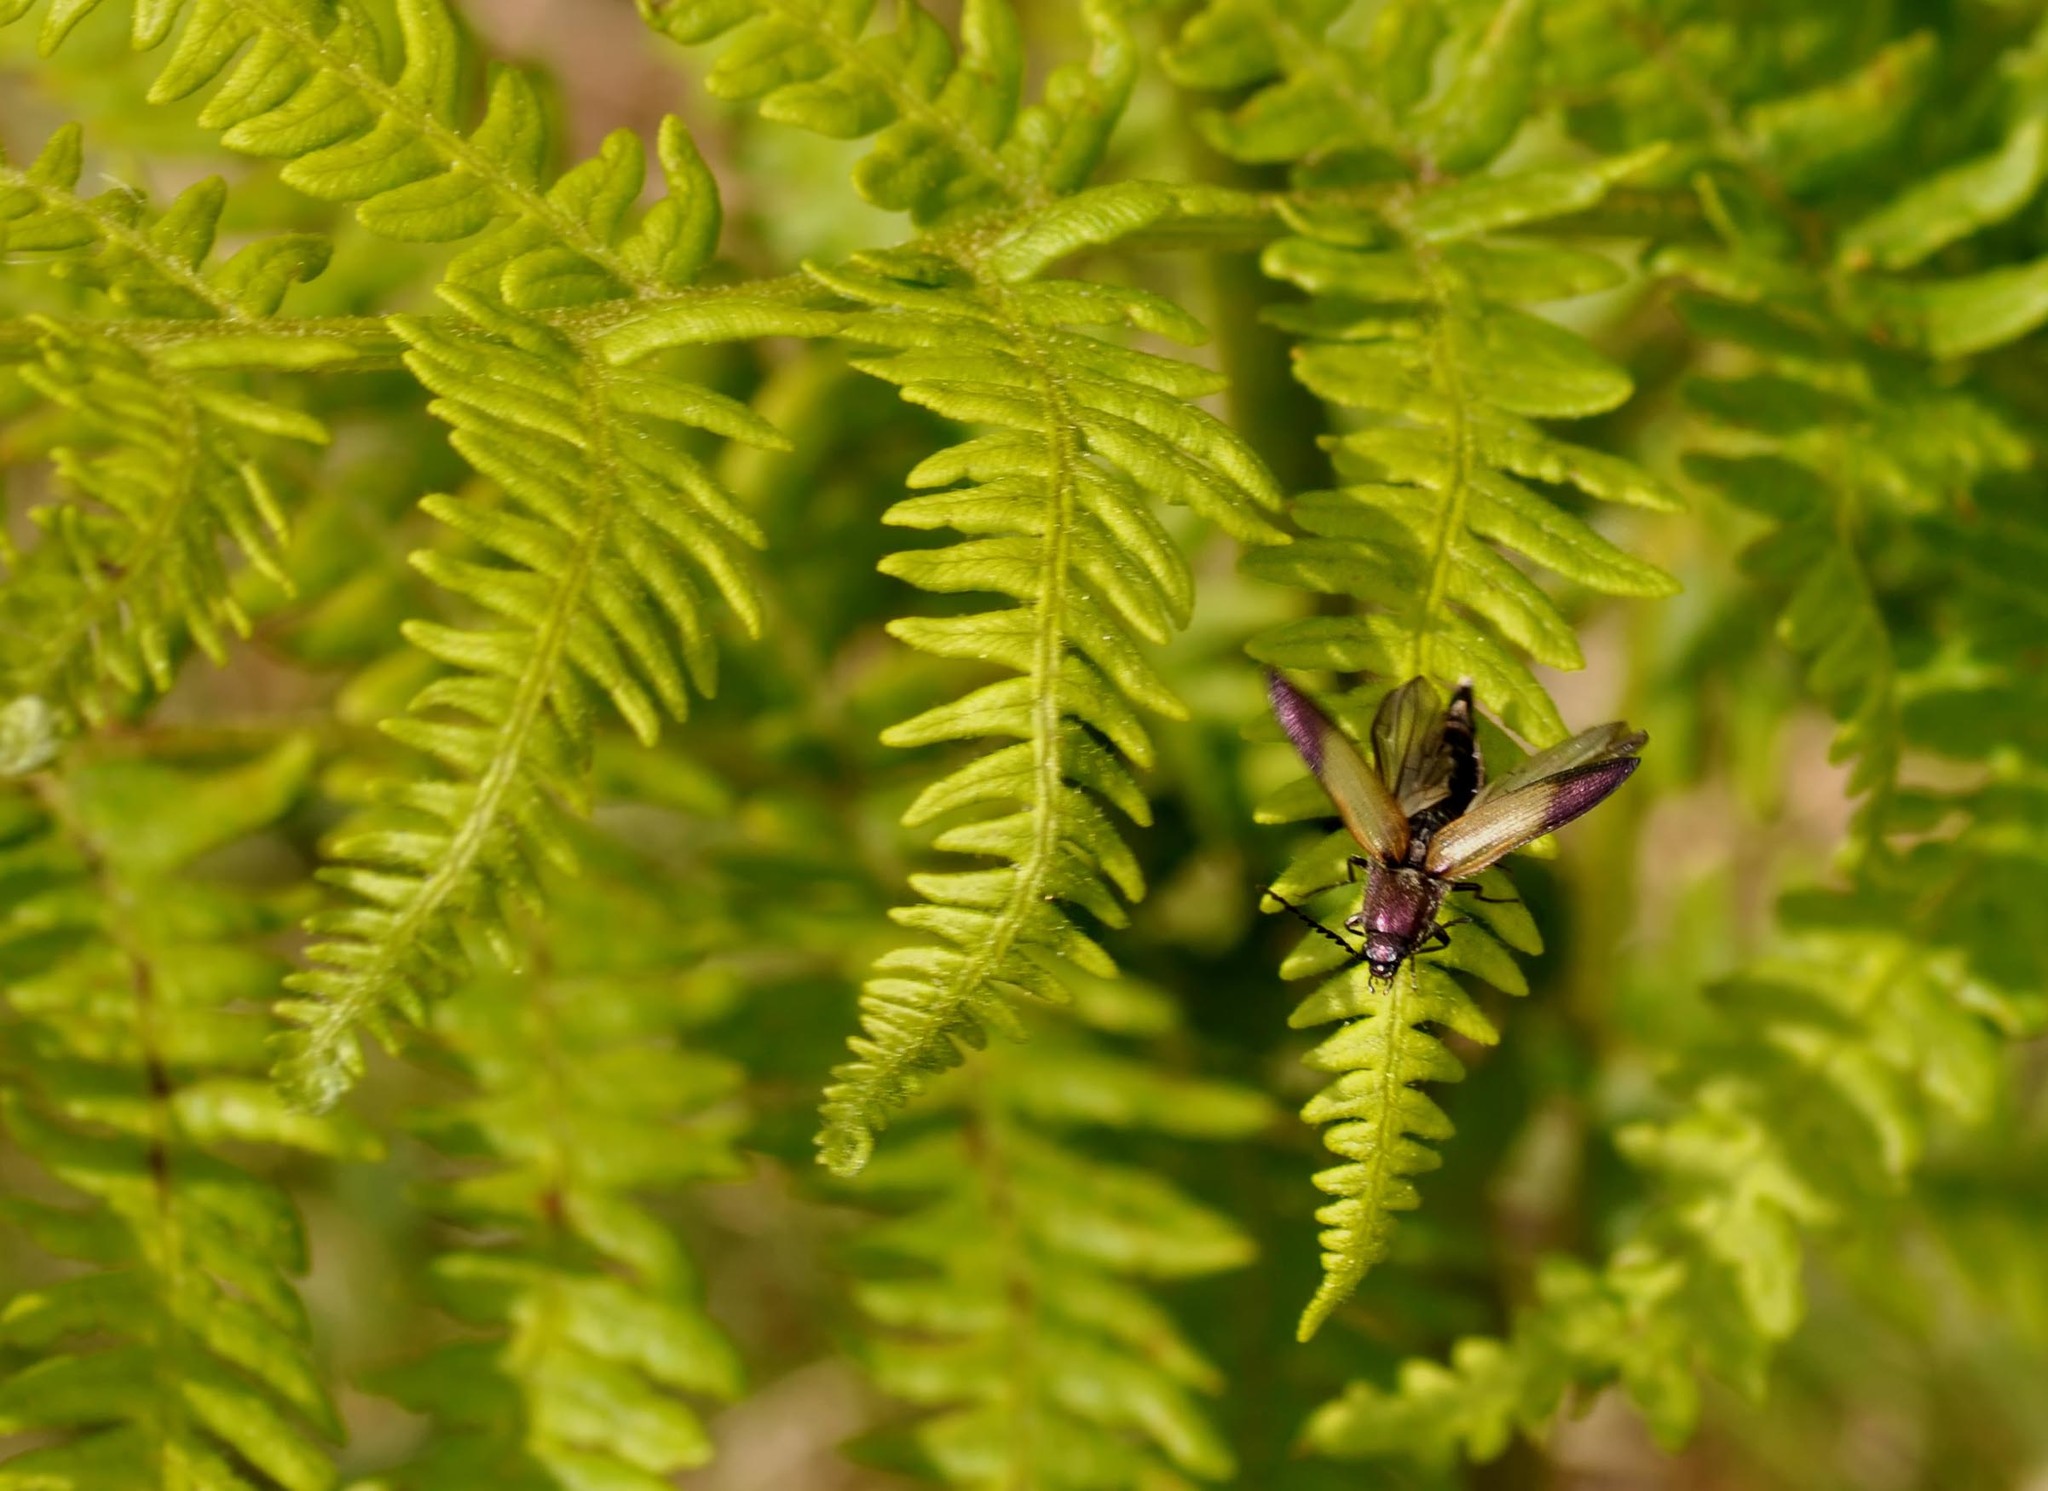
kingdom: Animalia
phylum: Arthropoda
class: Insecta
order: Coleoptera
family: Elateridae
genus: Ctenicera
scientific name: Ctenicera cuprea
